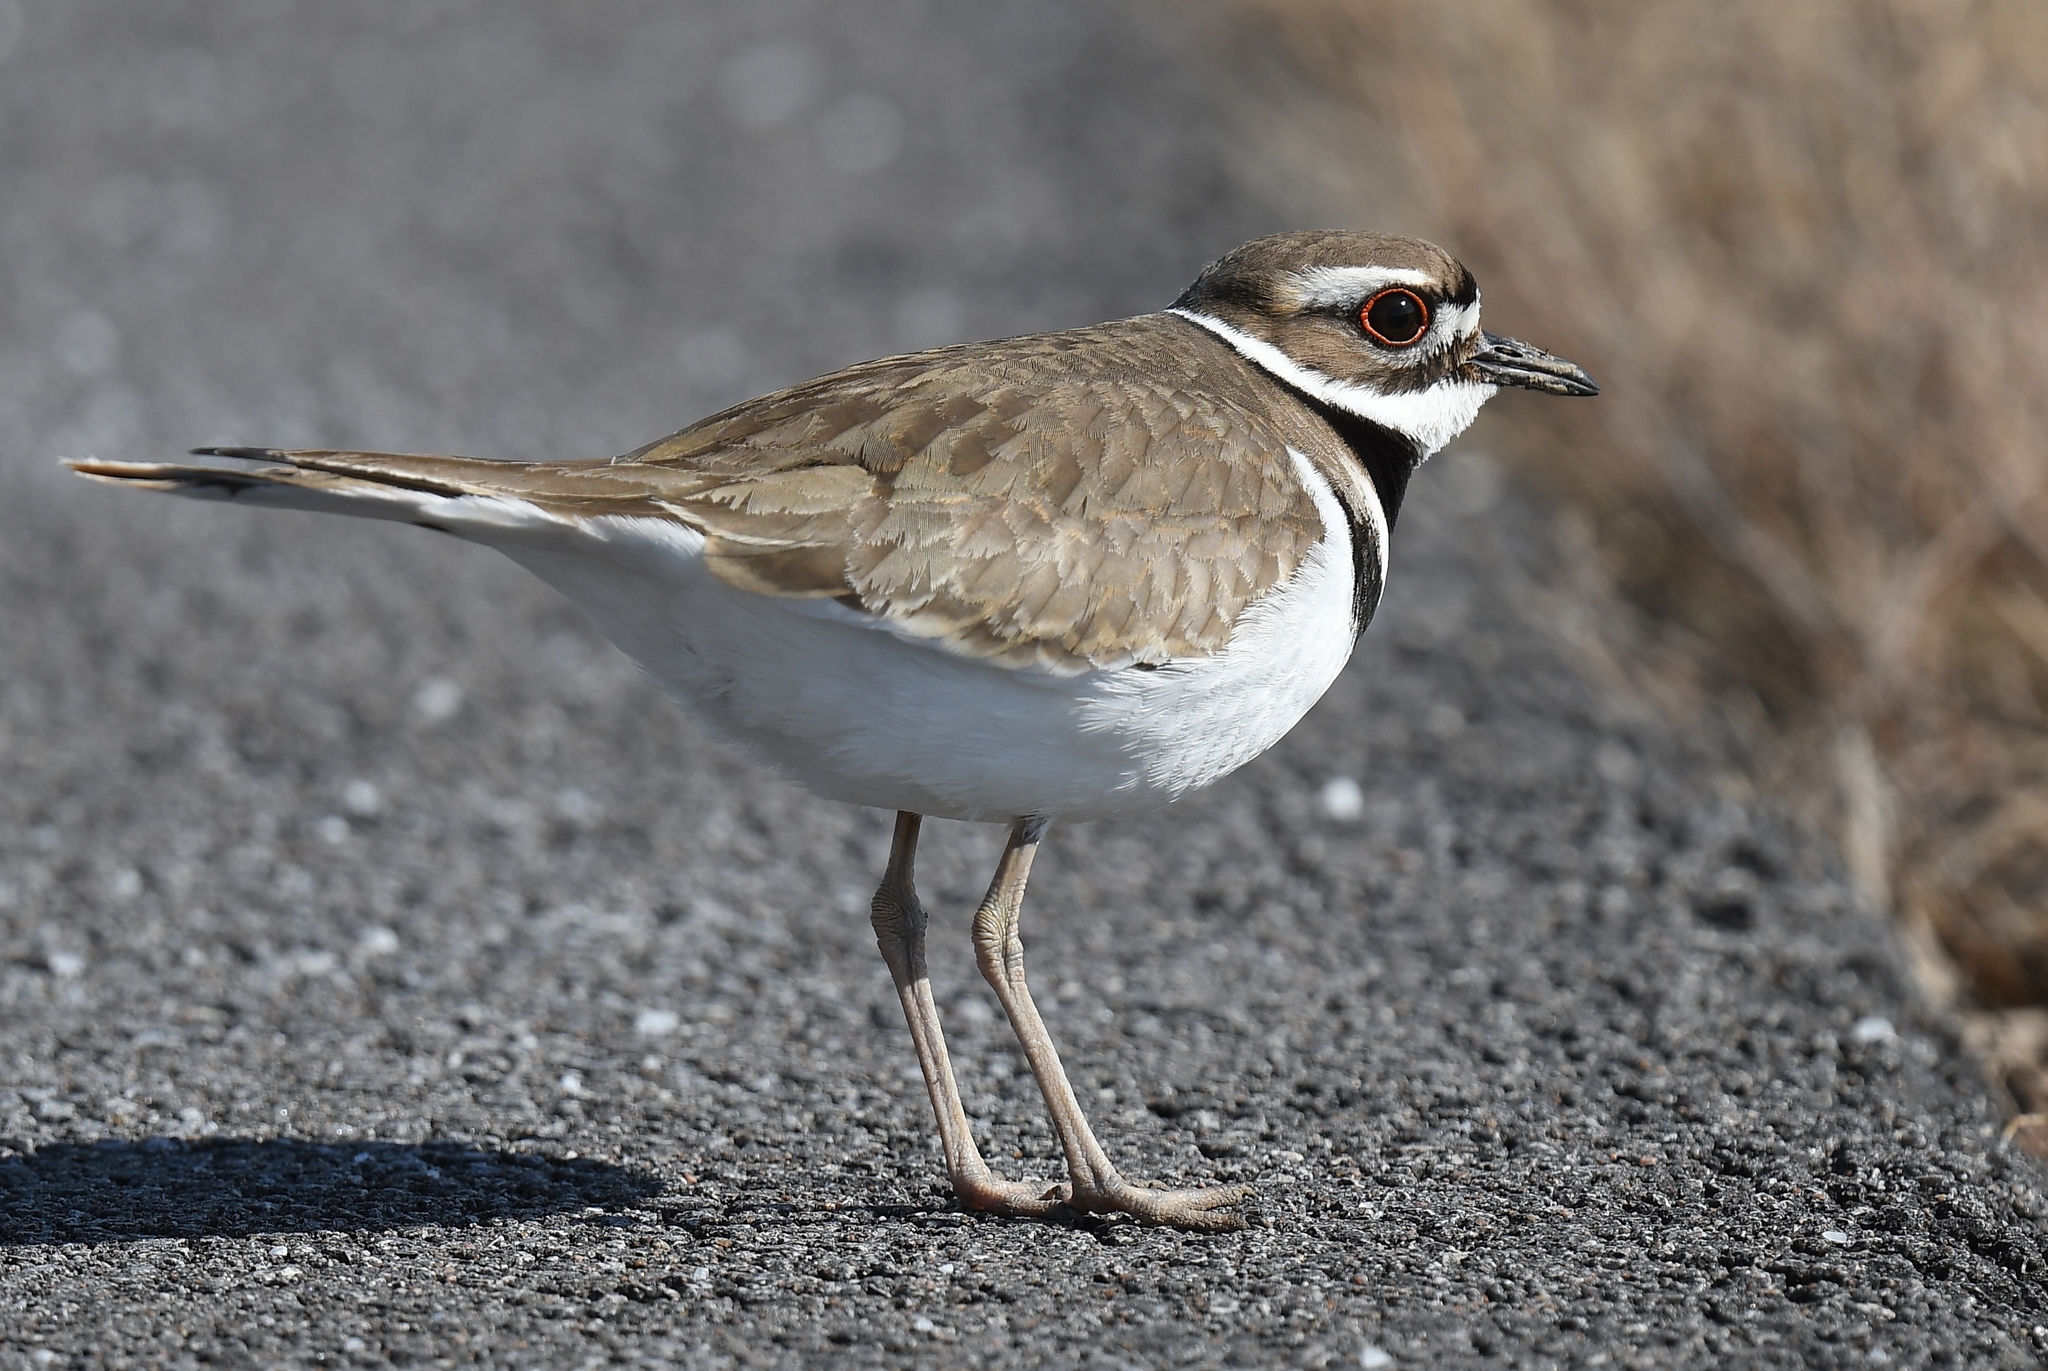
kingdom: Animalia
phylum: Chordata
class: Aves
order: Charadriiformes
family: Charadriidae
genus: Charadrius
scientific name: Charadrius vociferus
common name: Killdeer
